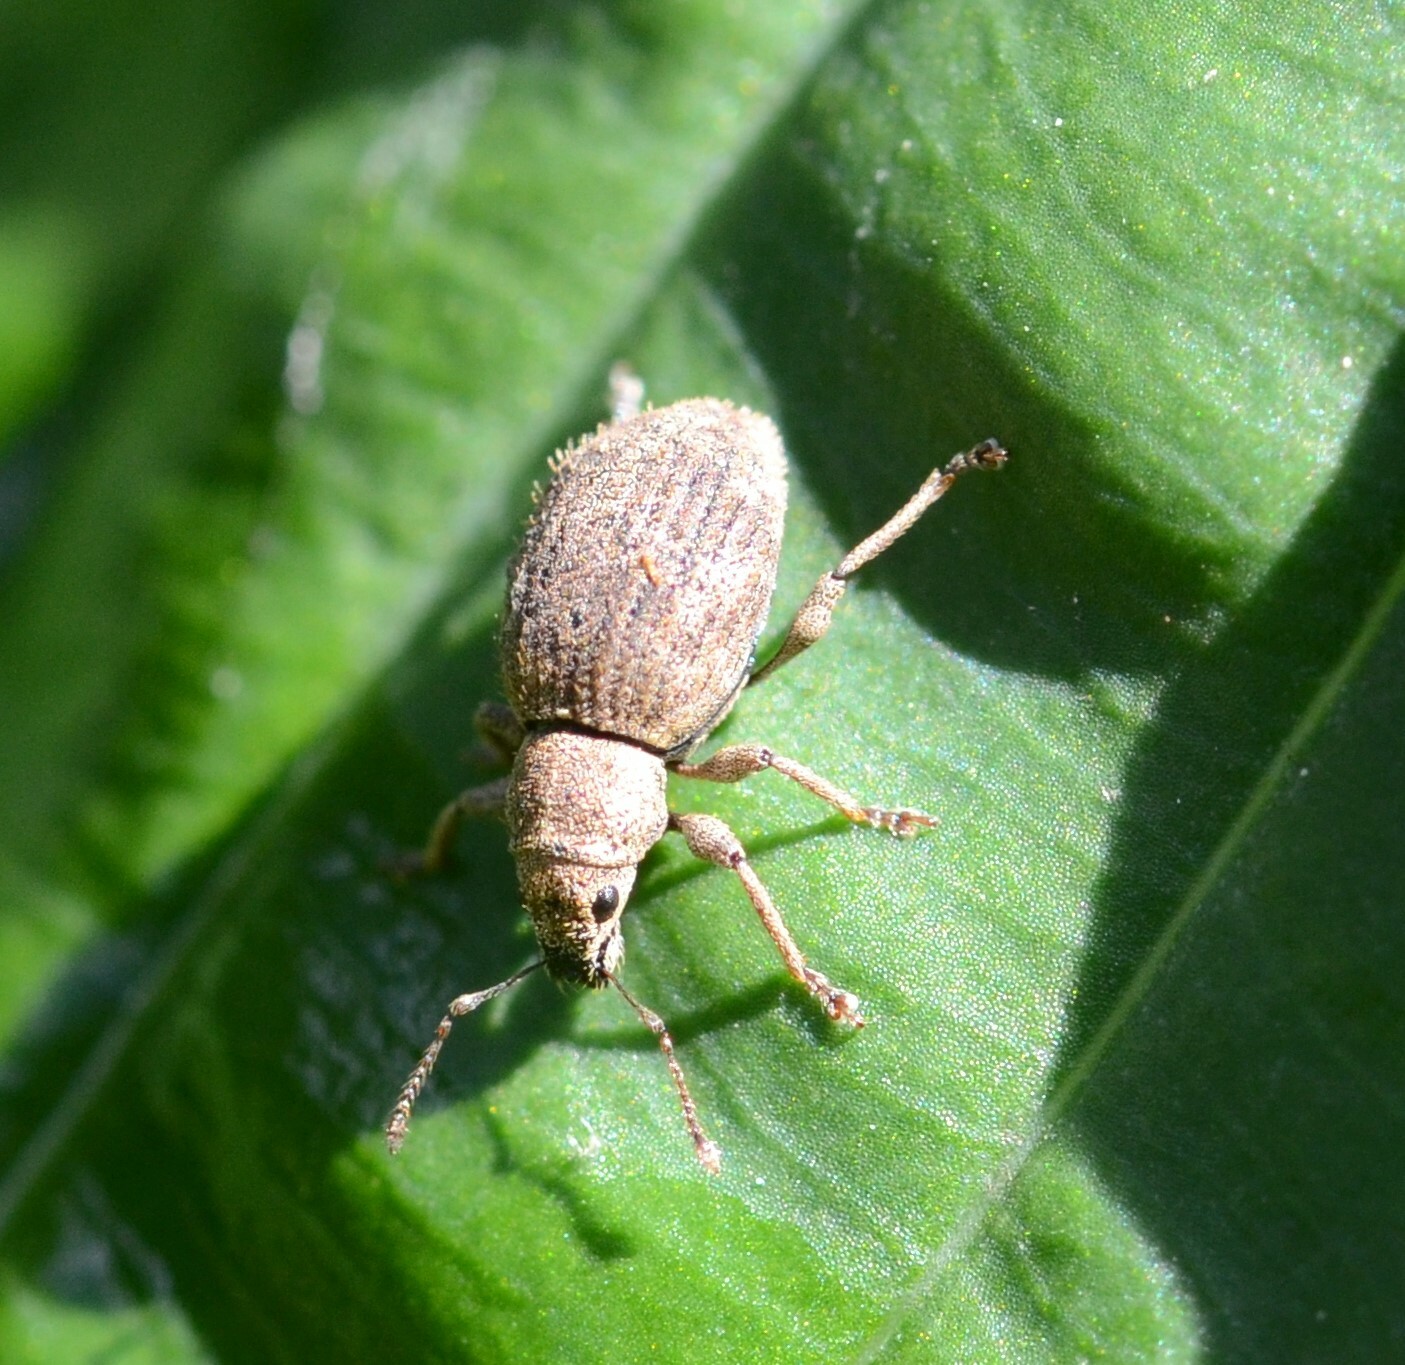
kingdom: Animalia
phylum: Arthropoda
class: Insecta
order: Coleoptera
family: Curculionidae
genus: Sciaphilus
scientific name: Sciaphilus asperatus
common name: Weevil
